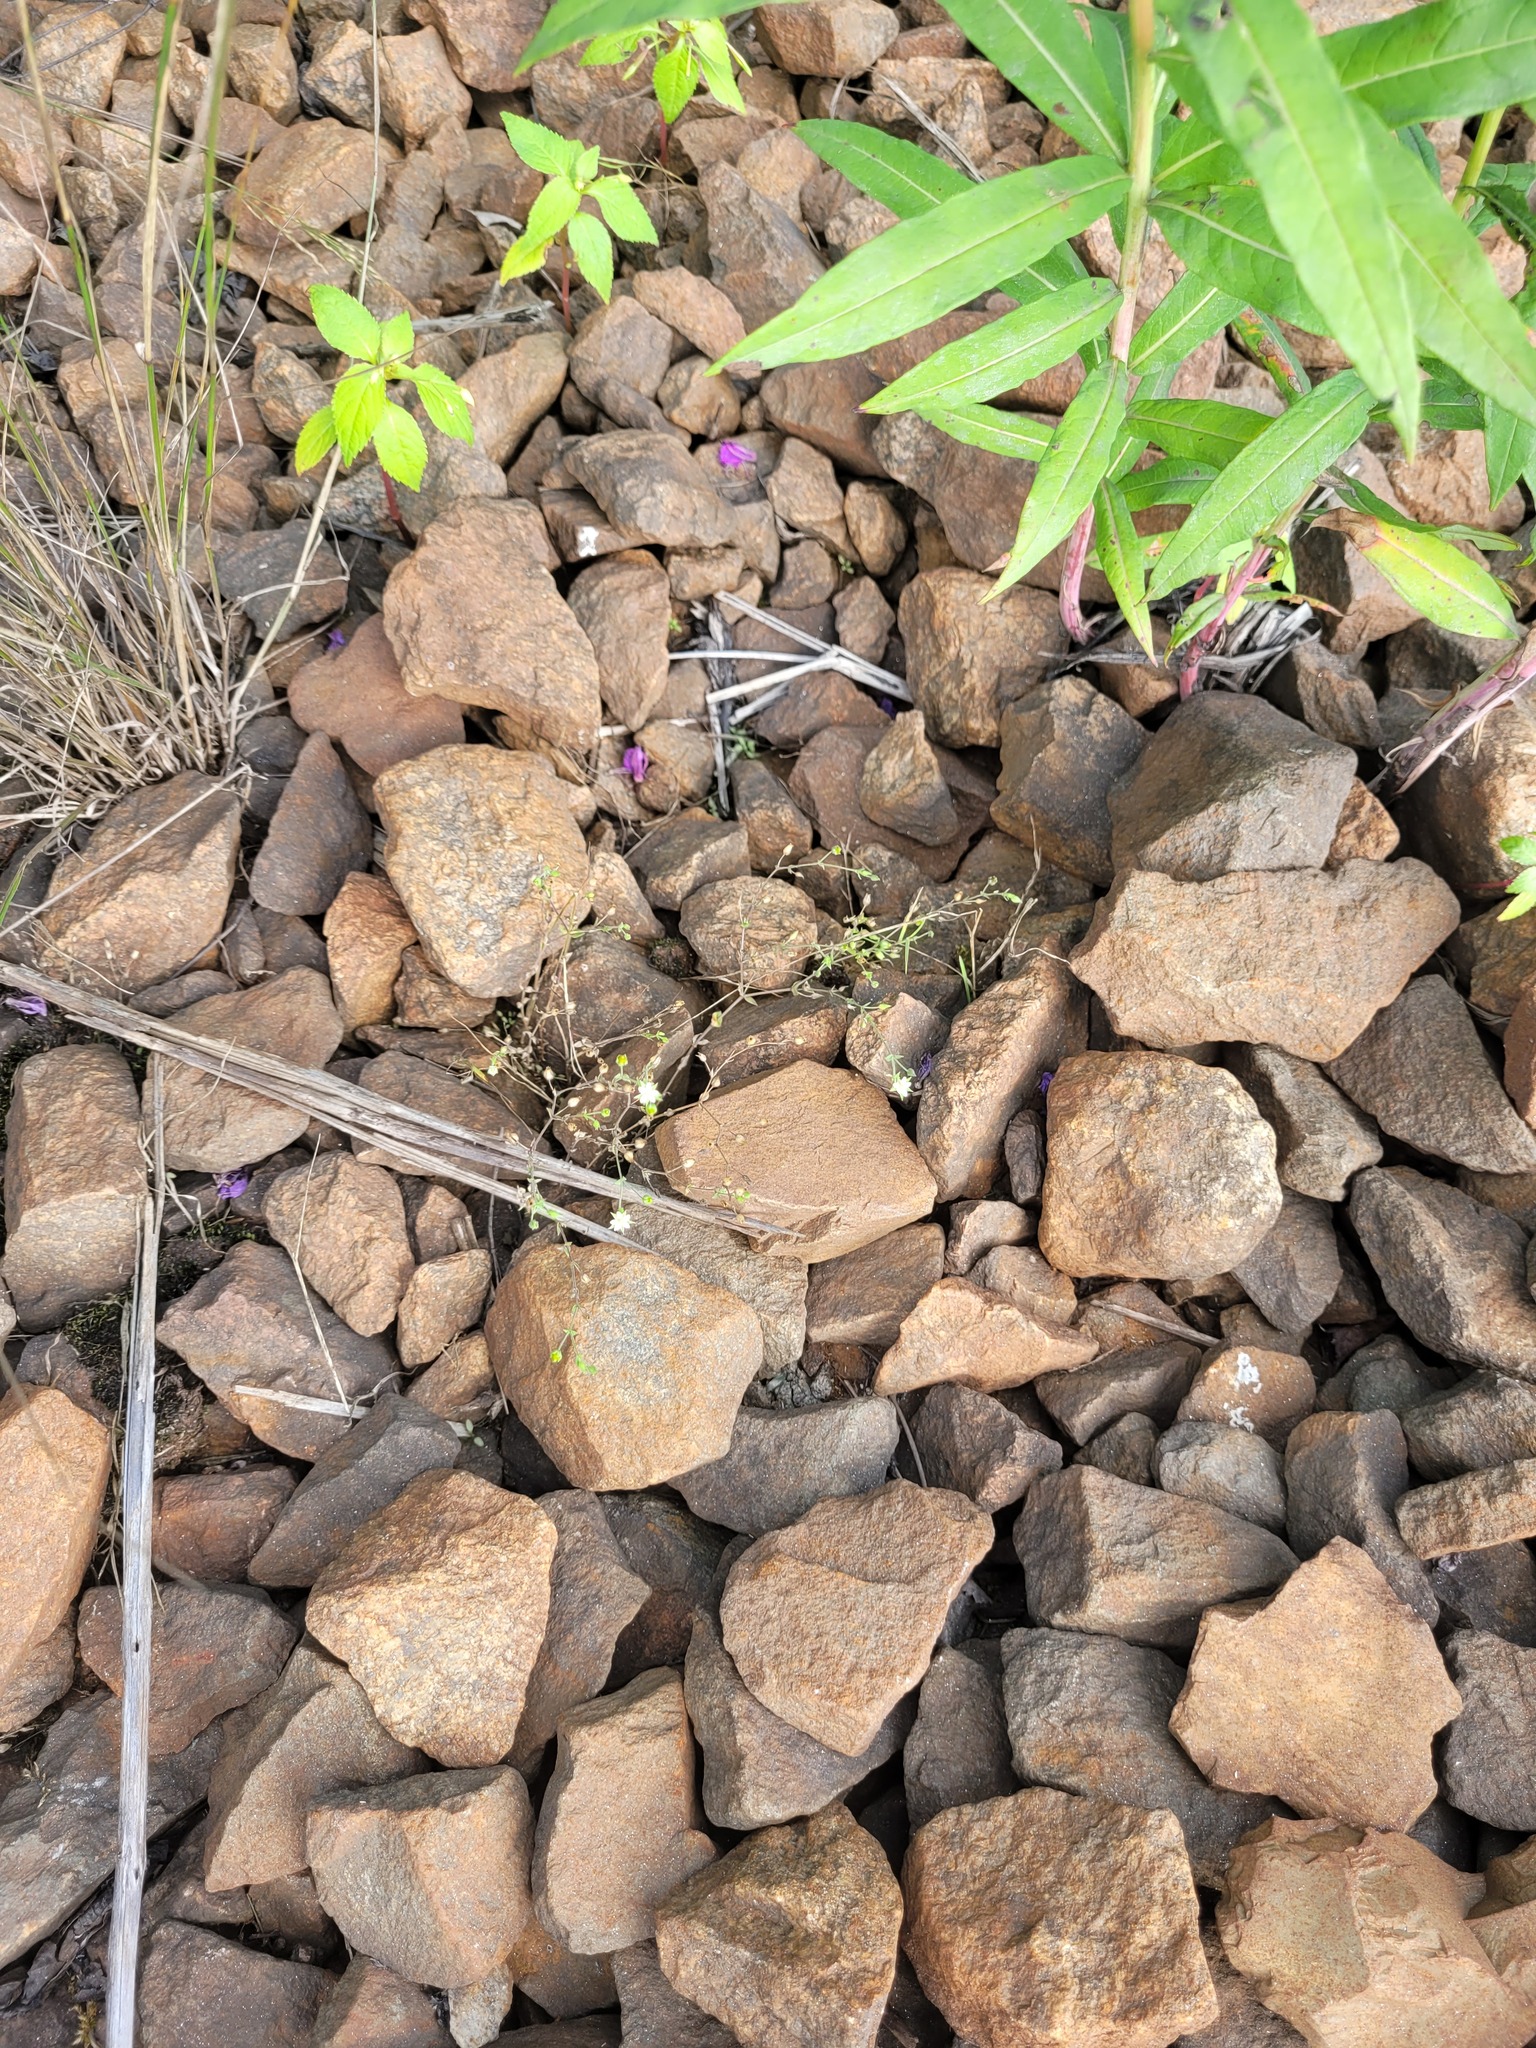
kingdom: Plantae
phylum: Tracheophyta
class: Magnoliopsida
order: Caryophyllales
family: Caryophyllaceae
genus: Arenaria
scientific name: Arenaria serpyllifolia
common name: Thyme-leaved sandwort
